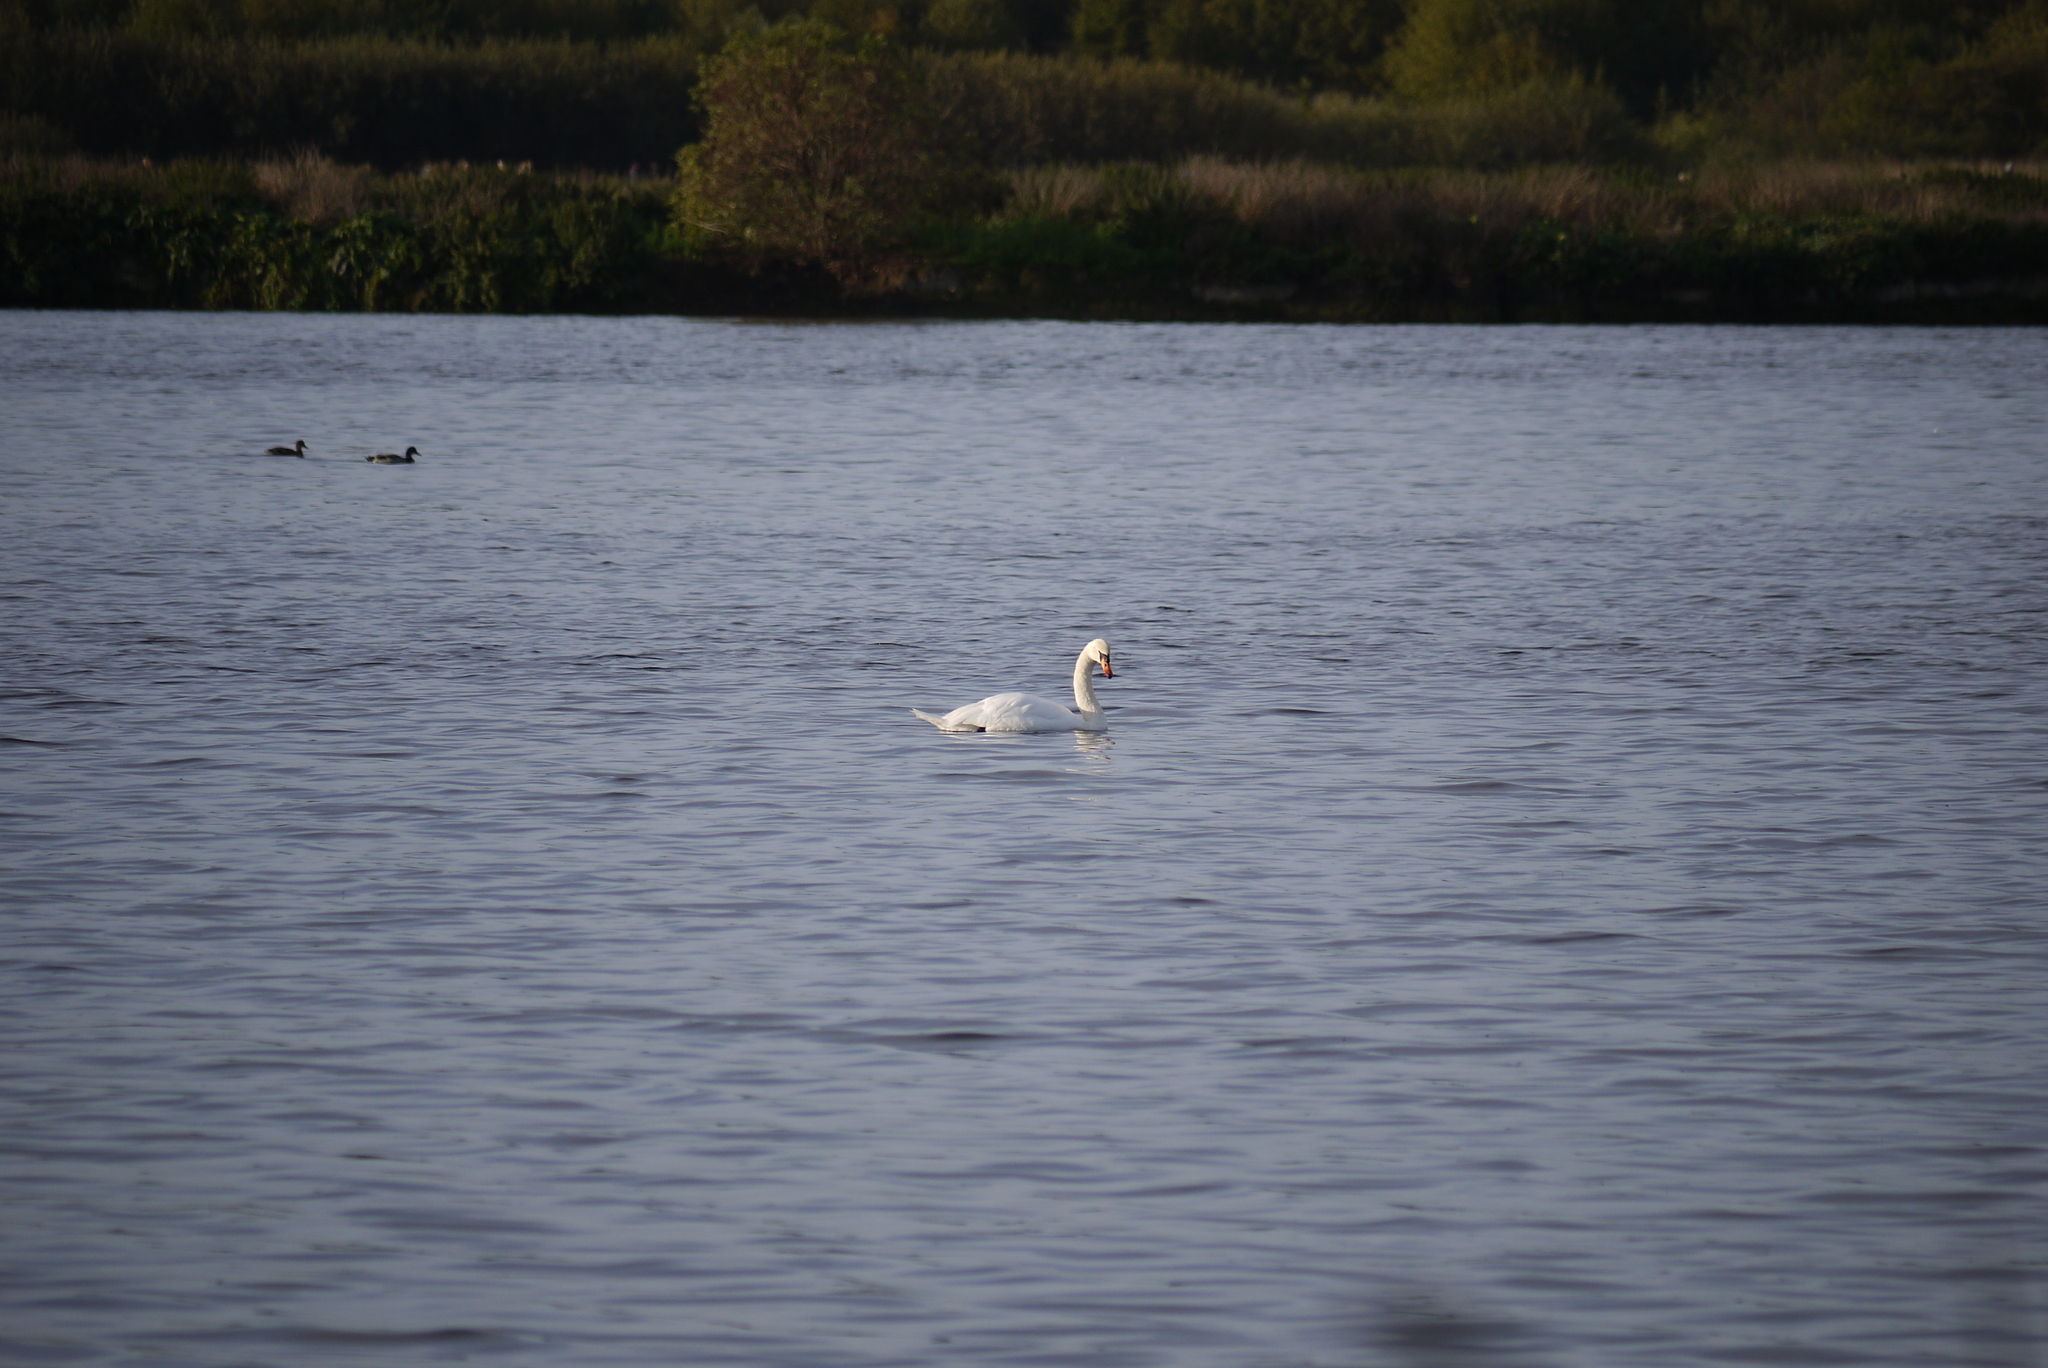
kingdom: Animalia
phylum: Chordata
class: Aves
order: Anseriformes
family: Anatidae
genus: Cygnus
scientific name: Cygnus olor
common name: Mute swan
